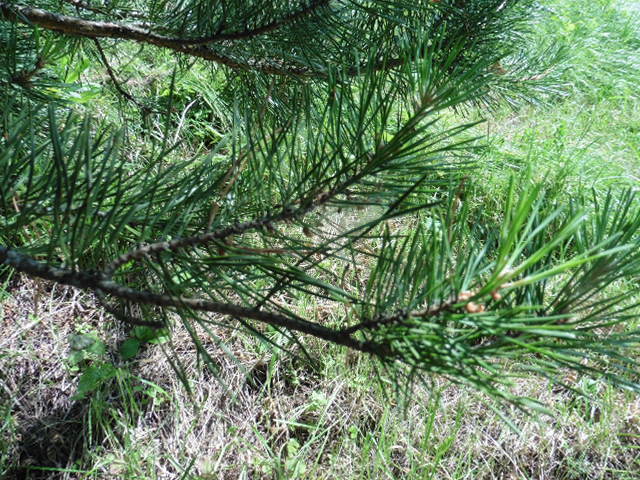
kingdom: Plantae
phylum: Tracheophyta
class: Pinopsida
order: Pinales
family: Pinaceae
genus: Pinus
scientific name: Pinus sylvestris
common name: Scots pine
